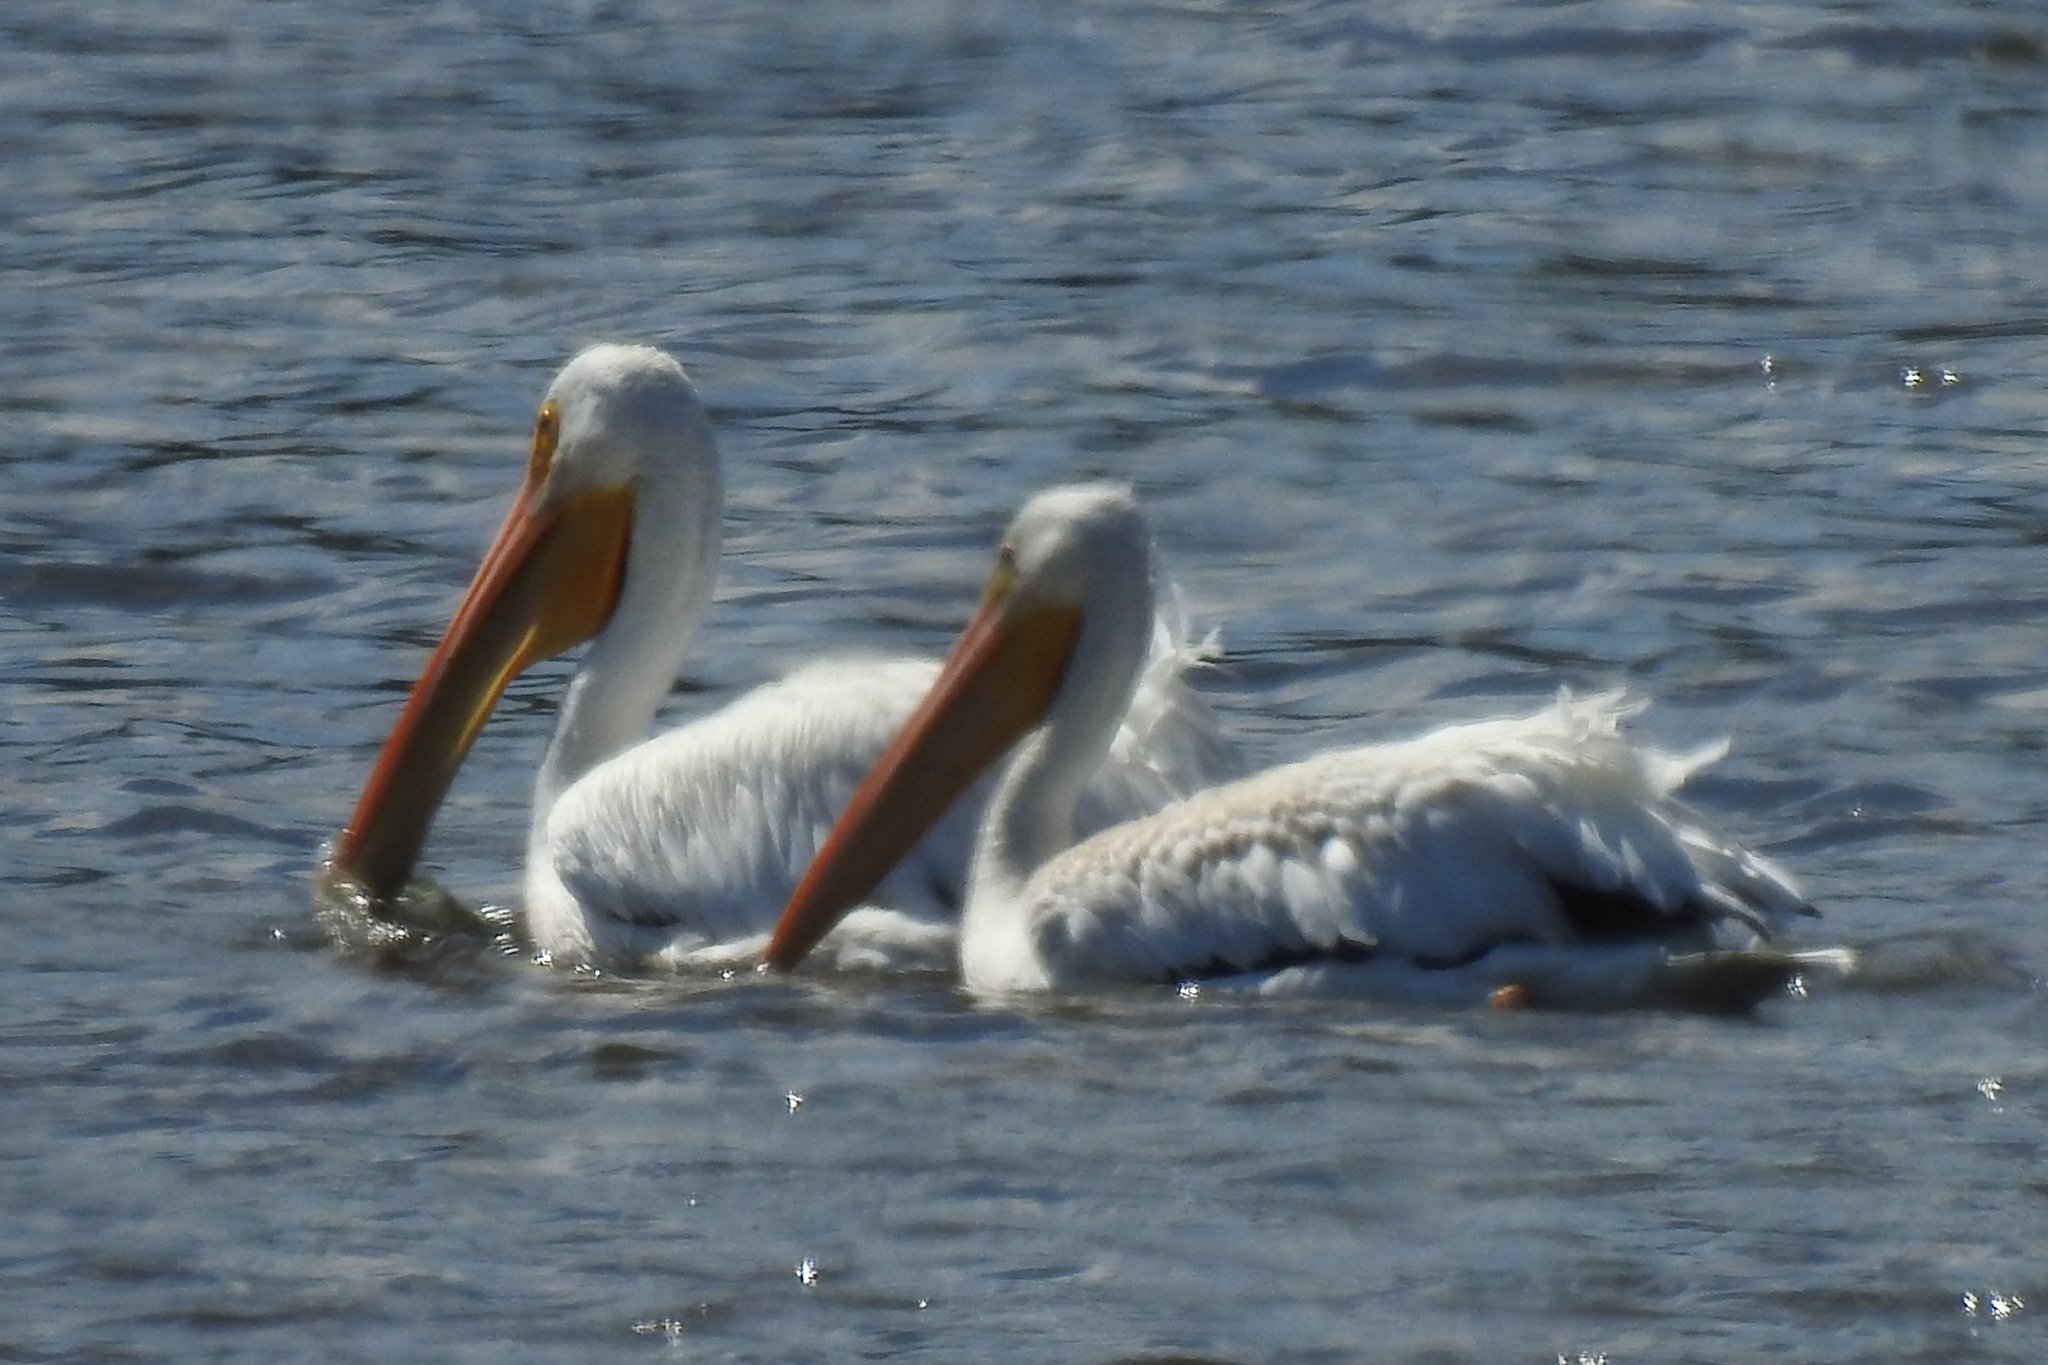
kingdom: Animalia
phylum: Chordata
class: Aves
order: Pelecaniformes
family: Pelecanidae
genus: Pelecanus
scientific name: Pelecanus erythrorhynchos
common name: American white pelican
